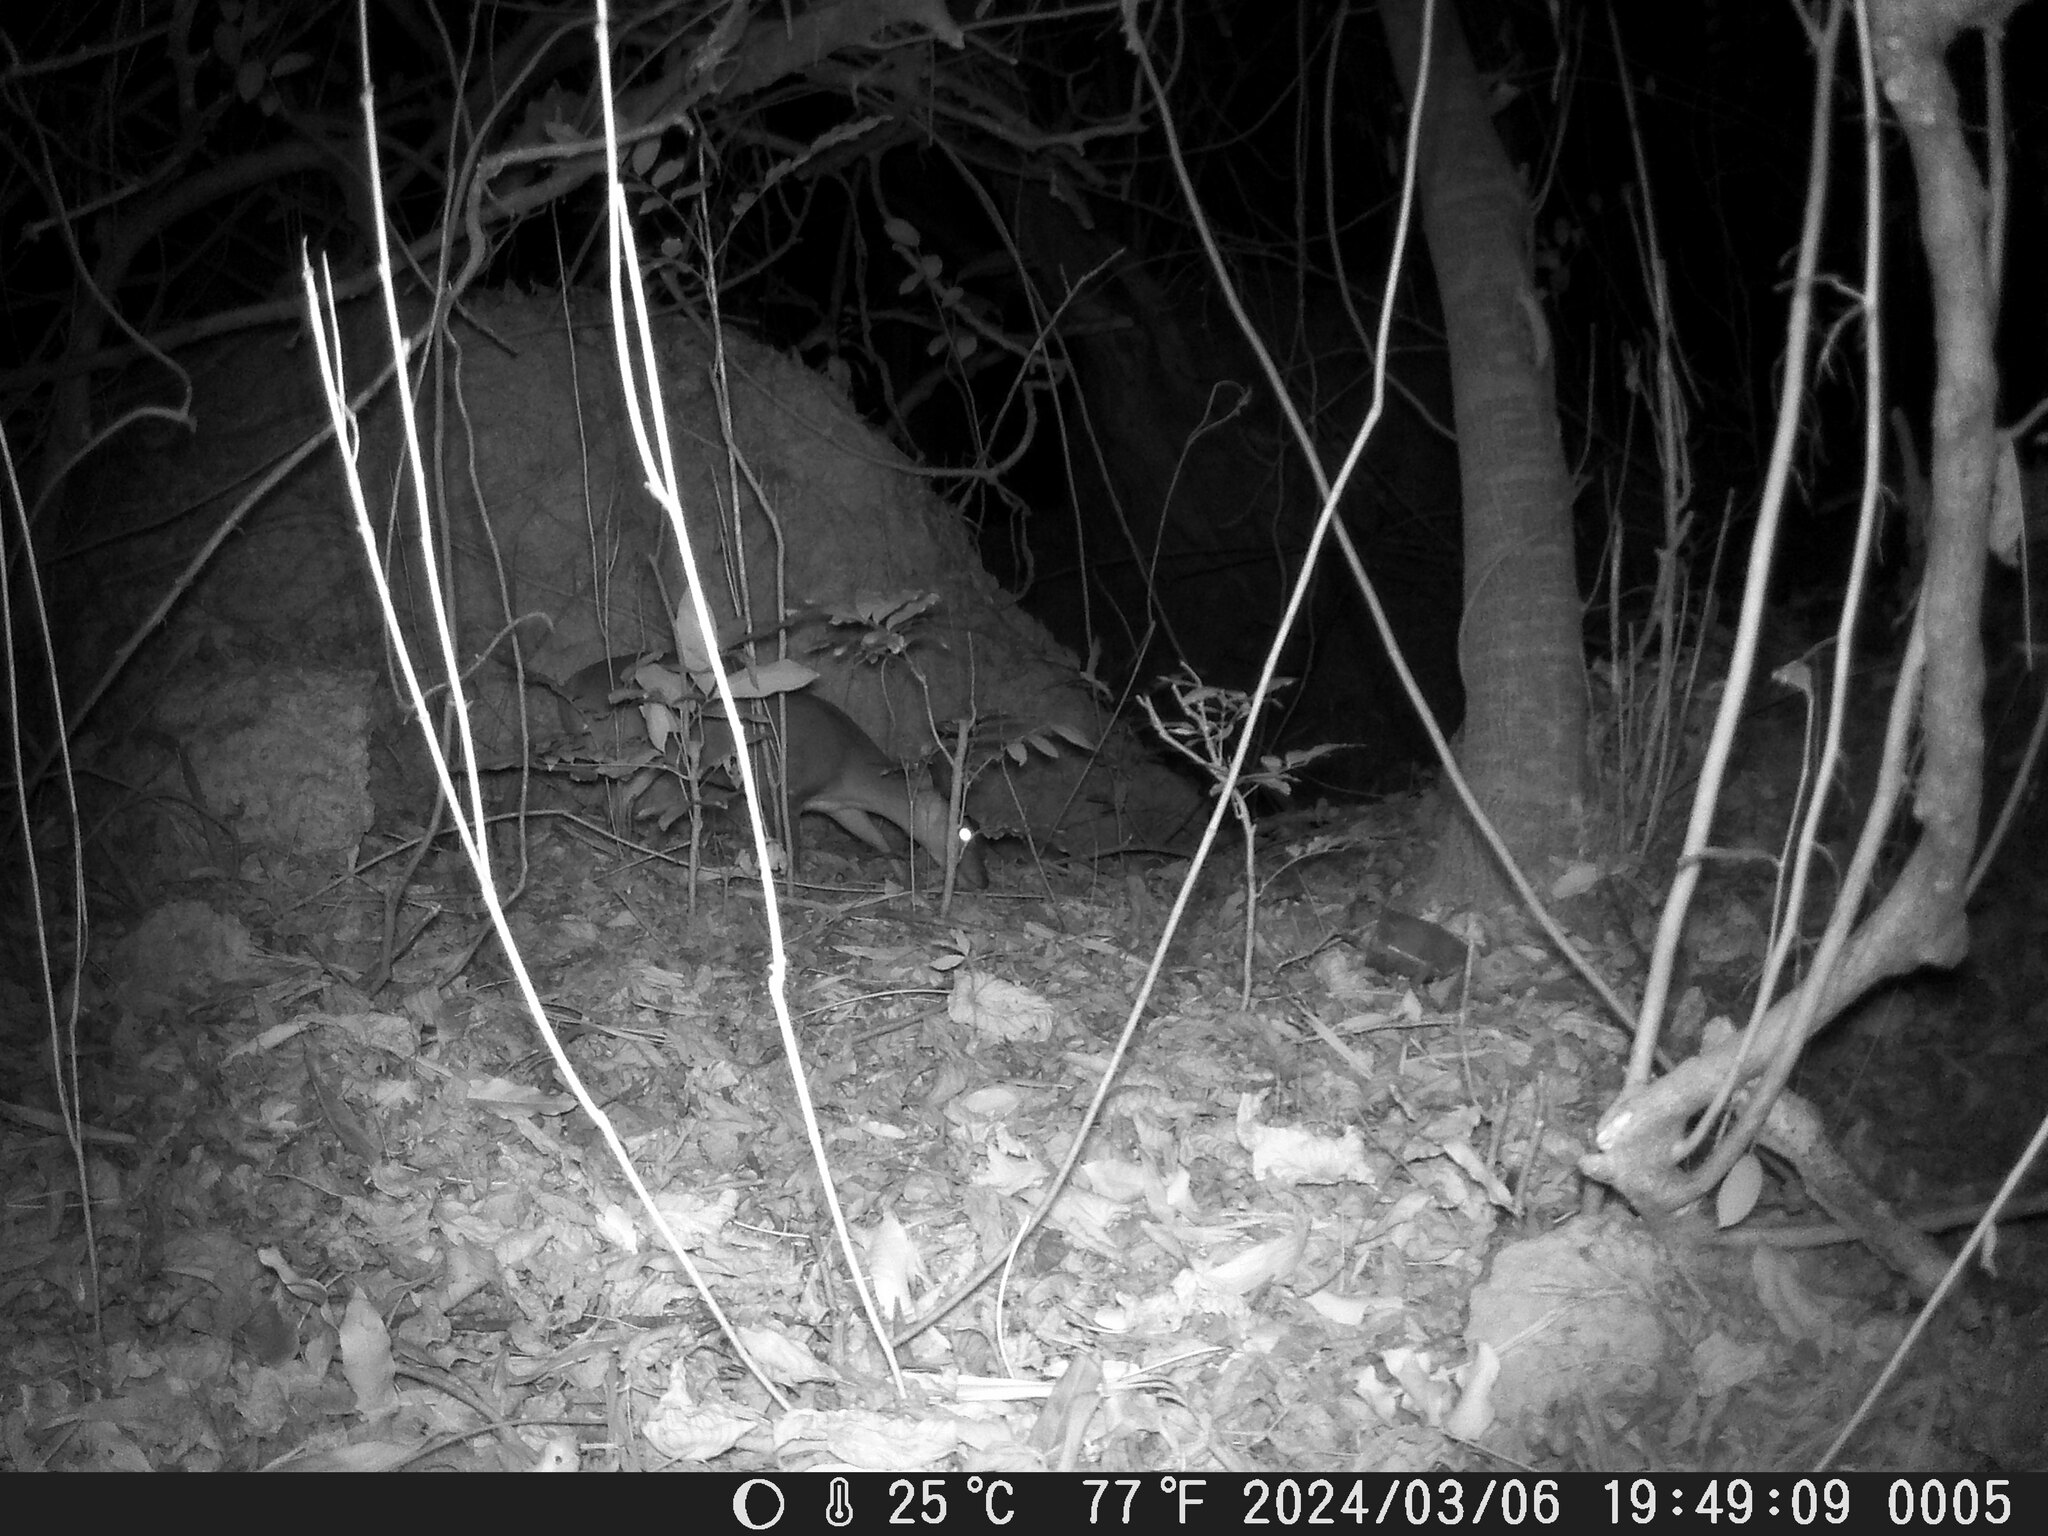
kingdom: Animalia
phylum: Chordata
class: Mammalia
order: Artiodactyla
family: Cervidae
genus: Muntiacus
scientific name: Muntiacus reevesi
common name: Reeves' muntjac
